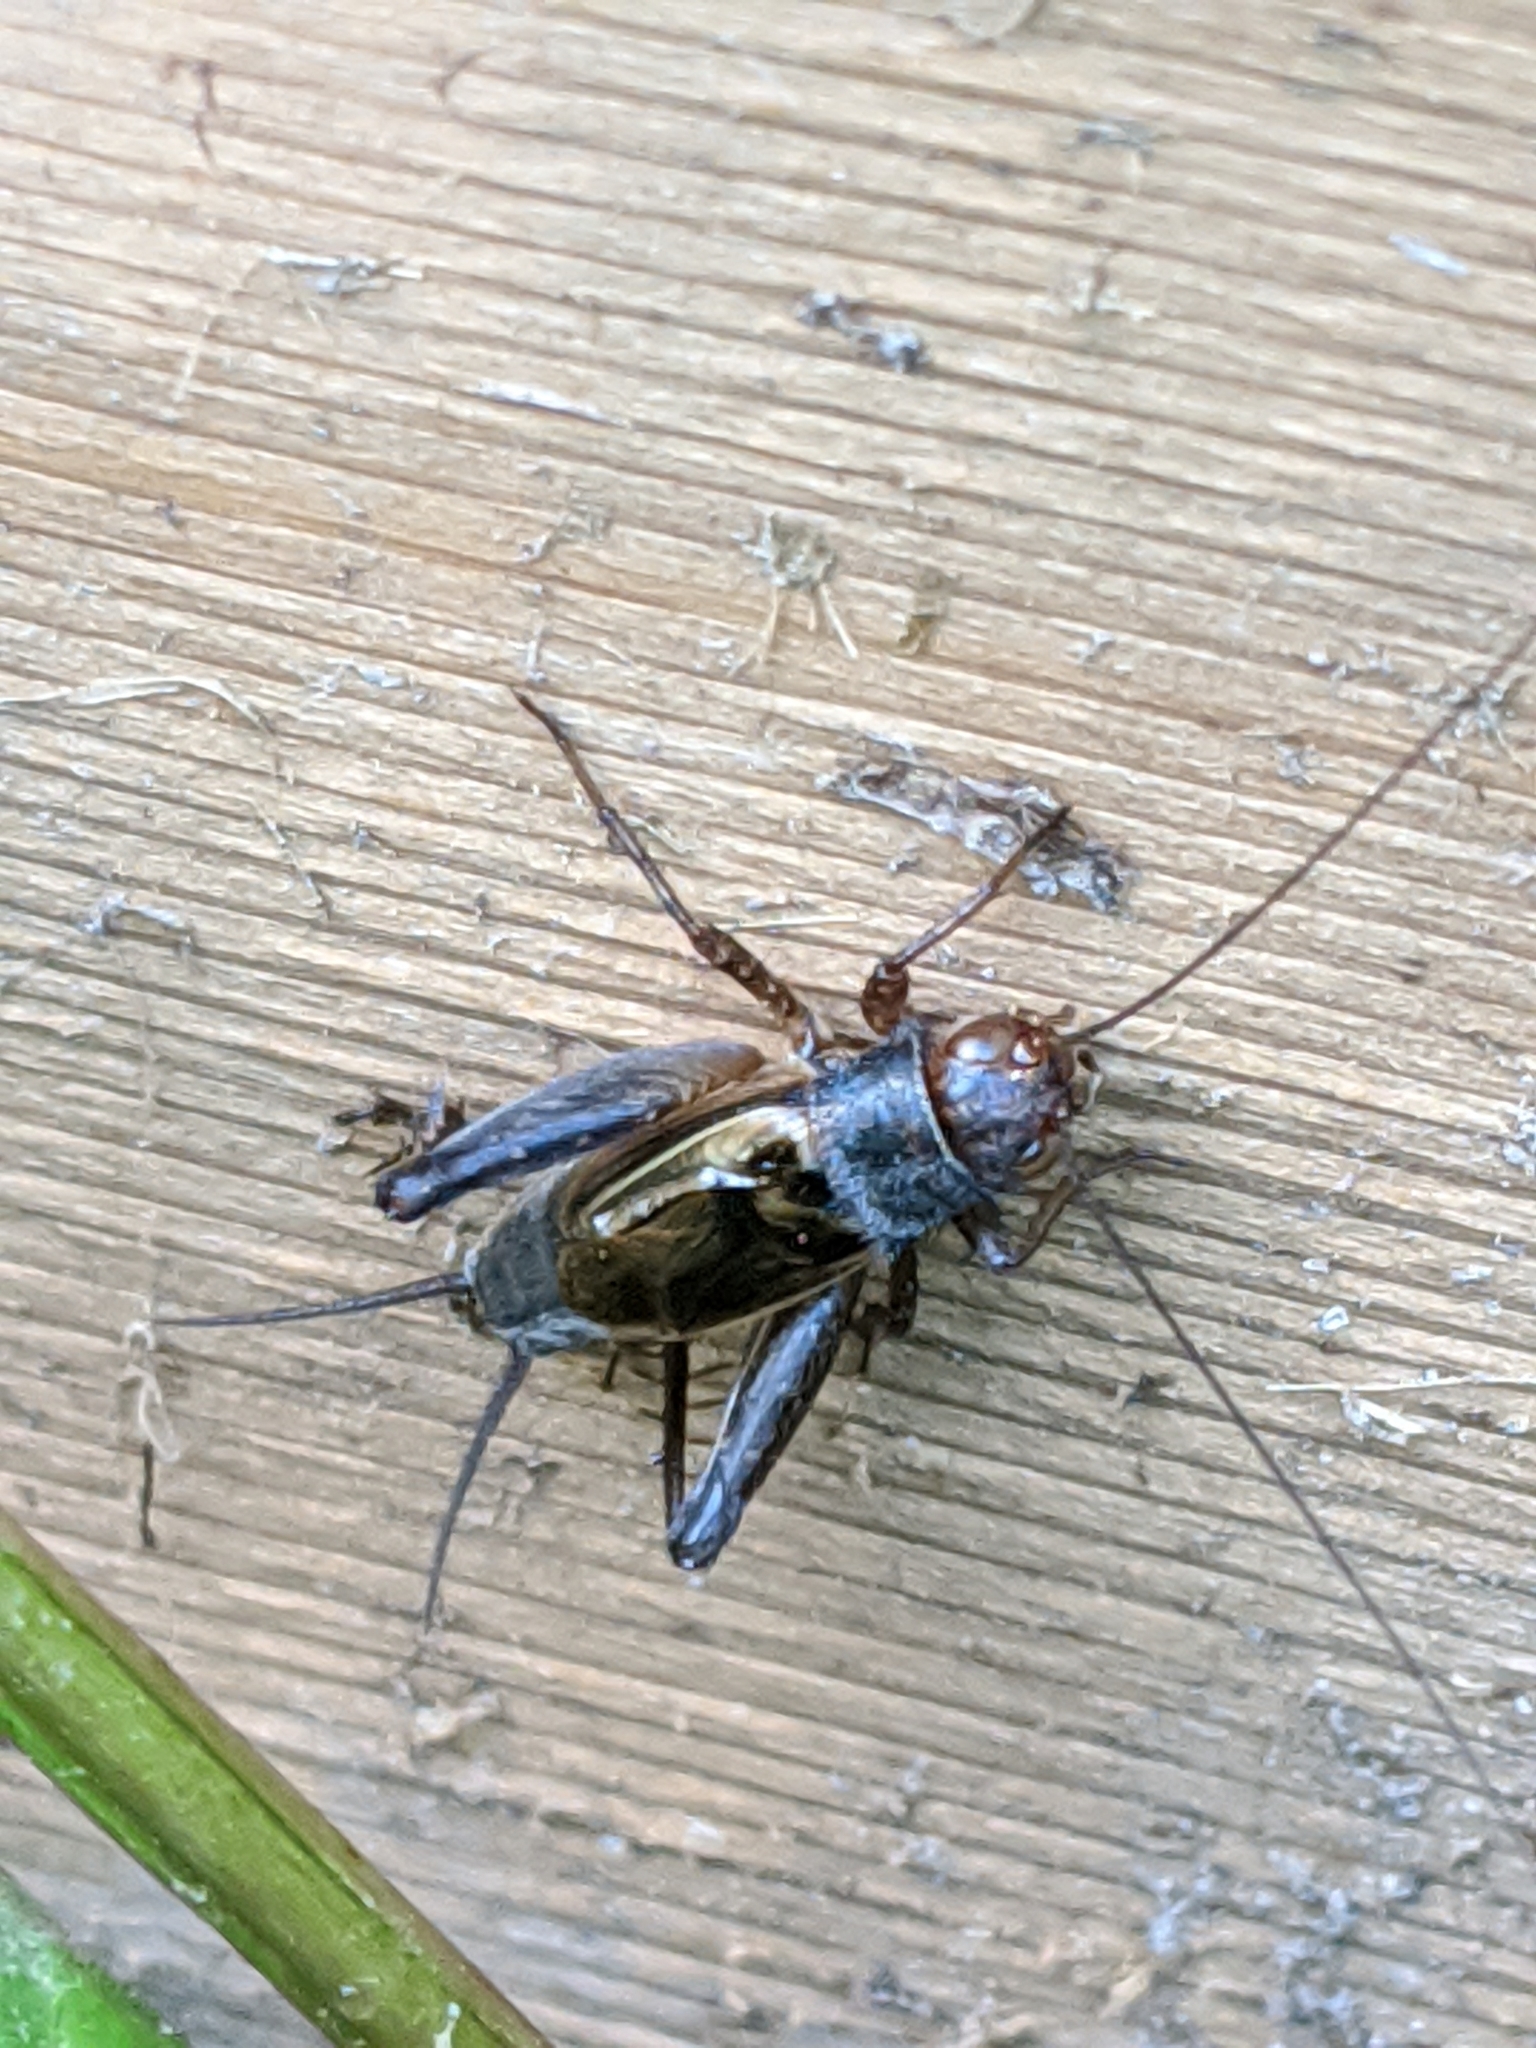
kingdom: Animalia
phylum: Arthropoda
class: Insecta
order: Orthoptera
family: Gryllidae
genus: Gryllus
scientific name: Gryllus pennsylvanicus
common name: Fall field cricket
